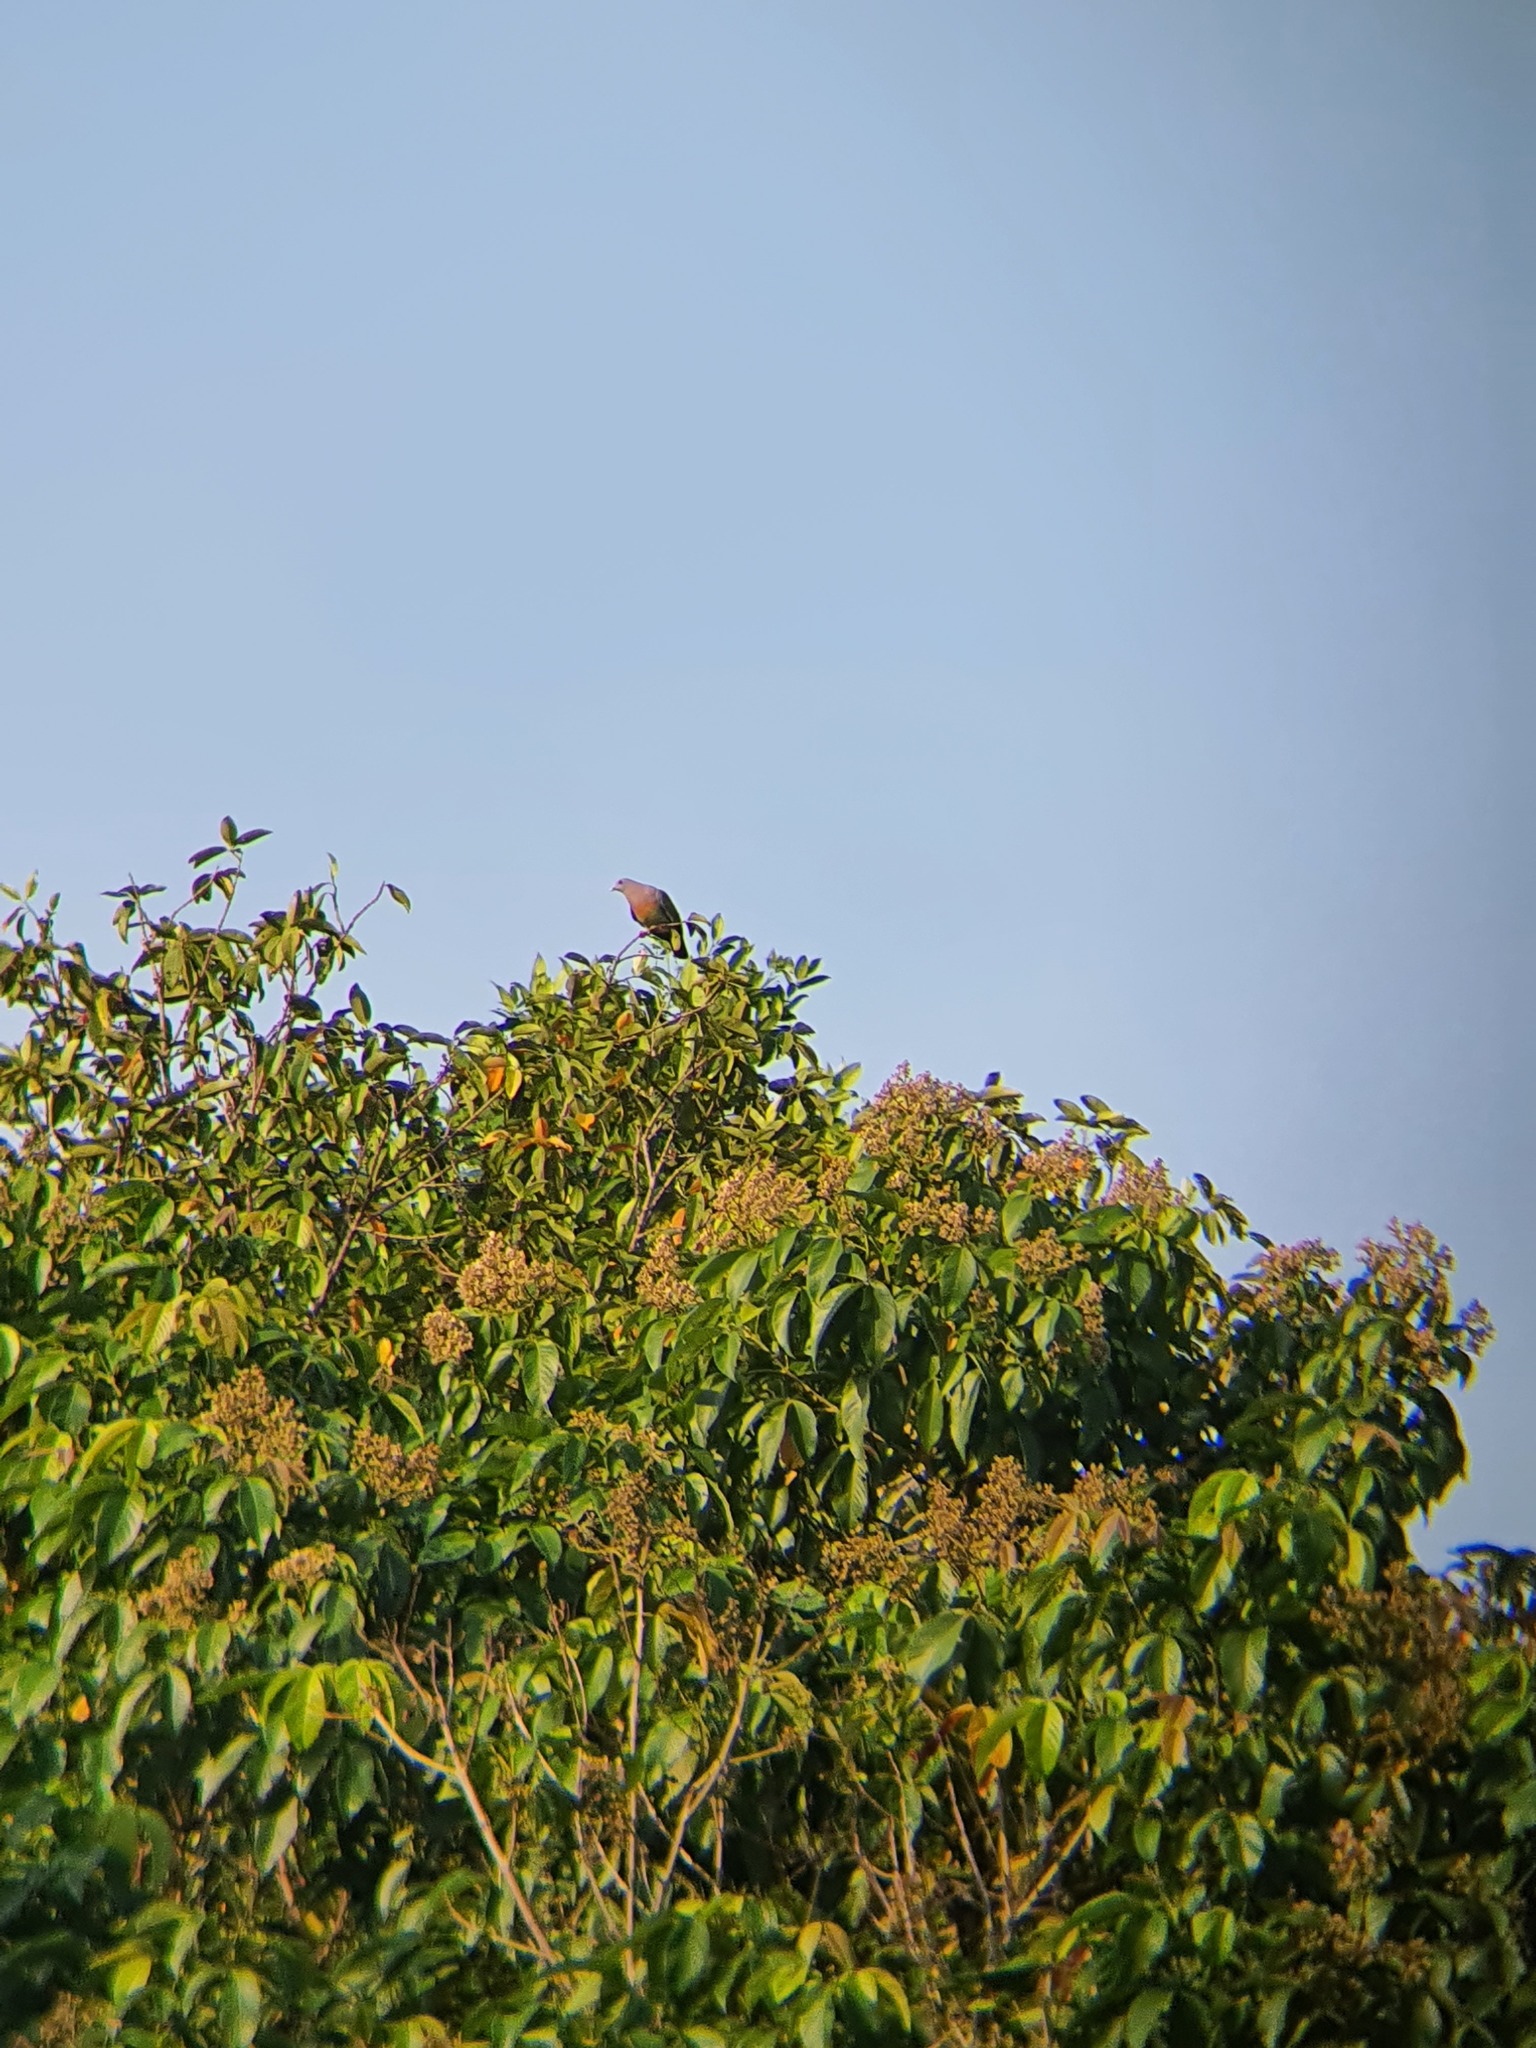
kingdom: Animalia
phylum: Chordata
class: Aves
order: Columbiformes
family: Columbidae
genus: Treron
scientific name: Treron vernans
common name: Pink-necked green pigeon
